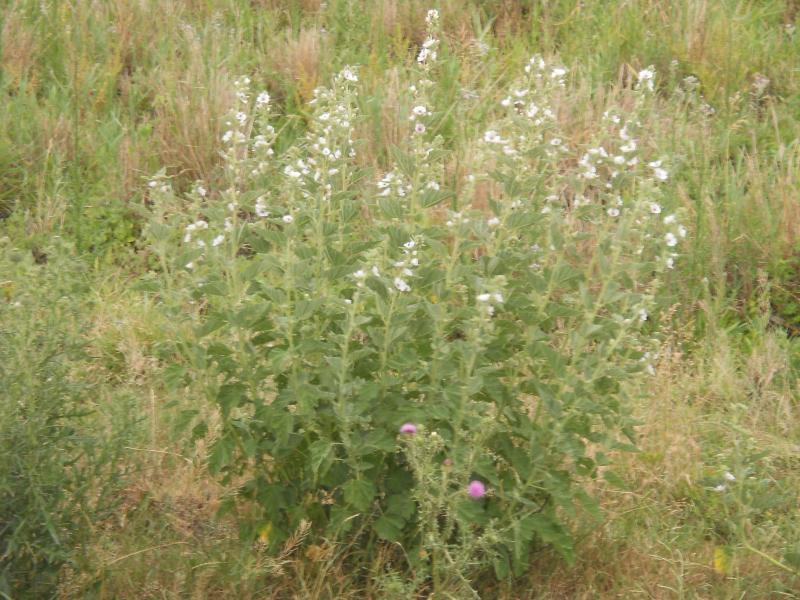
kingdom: Plantae
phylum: Tracheophyta
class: Magnoliopsida
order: Malvales
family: Malvaceae
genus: Althaea
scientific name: Althaea officinalis
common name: Marsh-mallow
